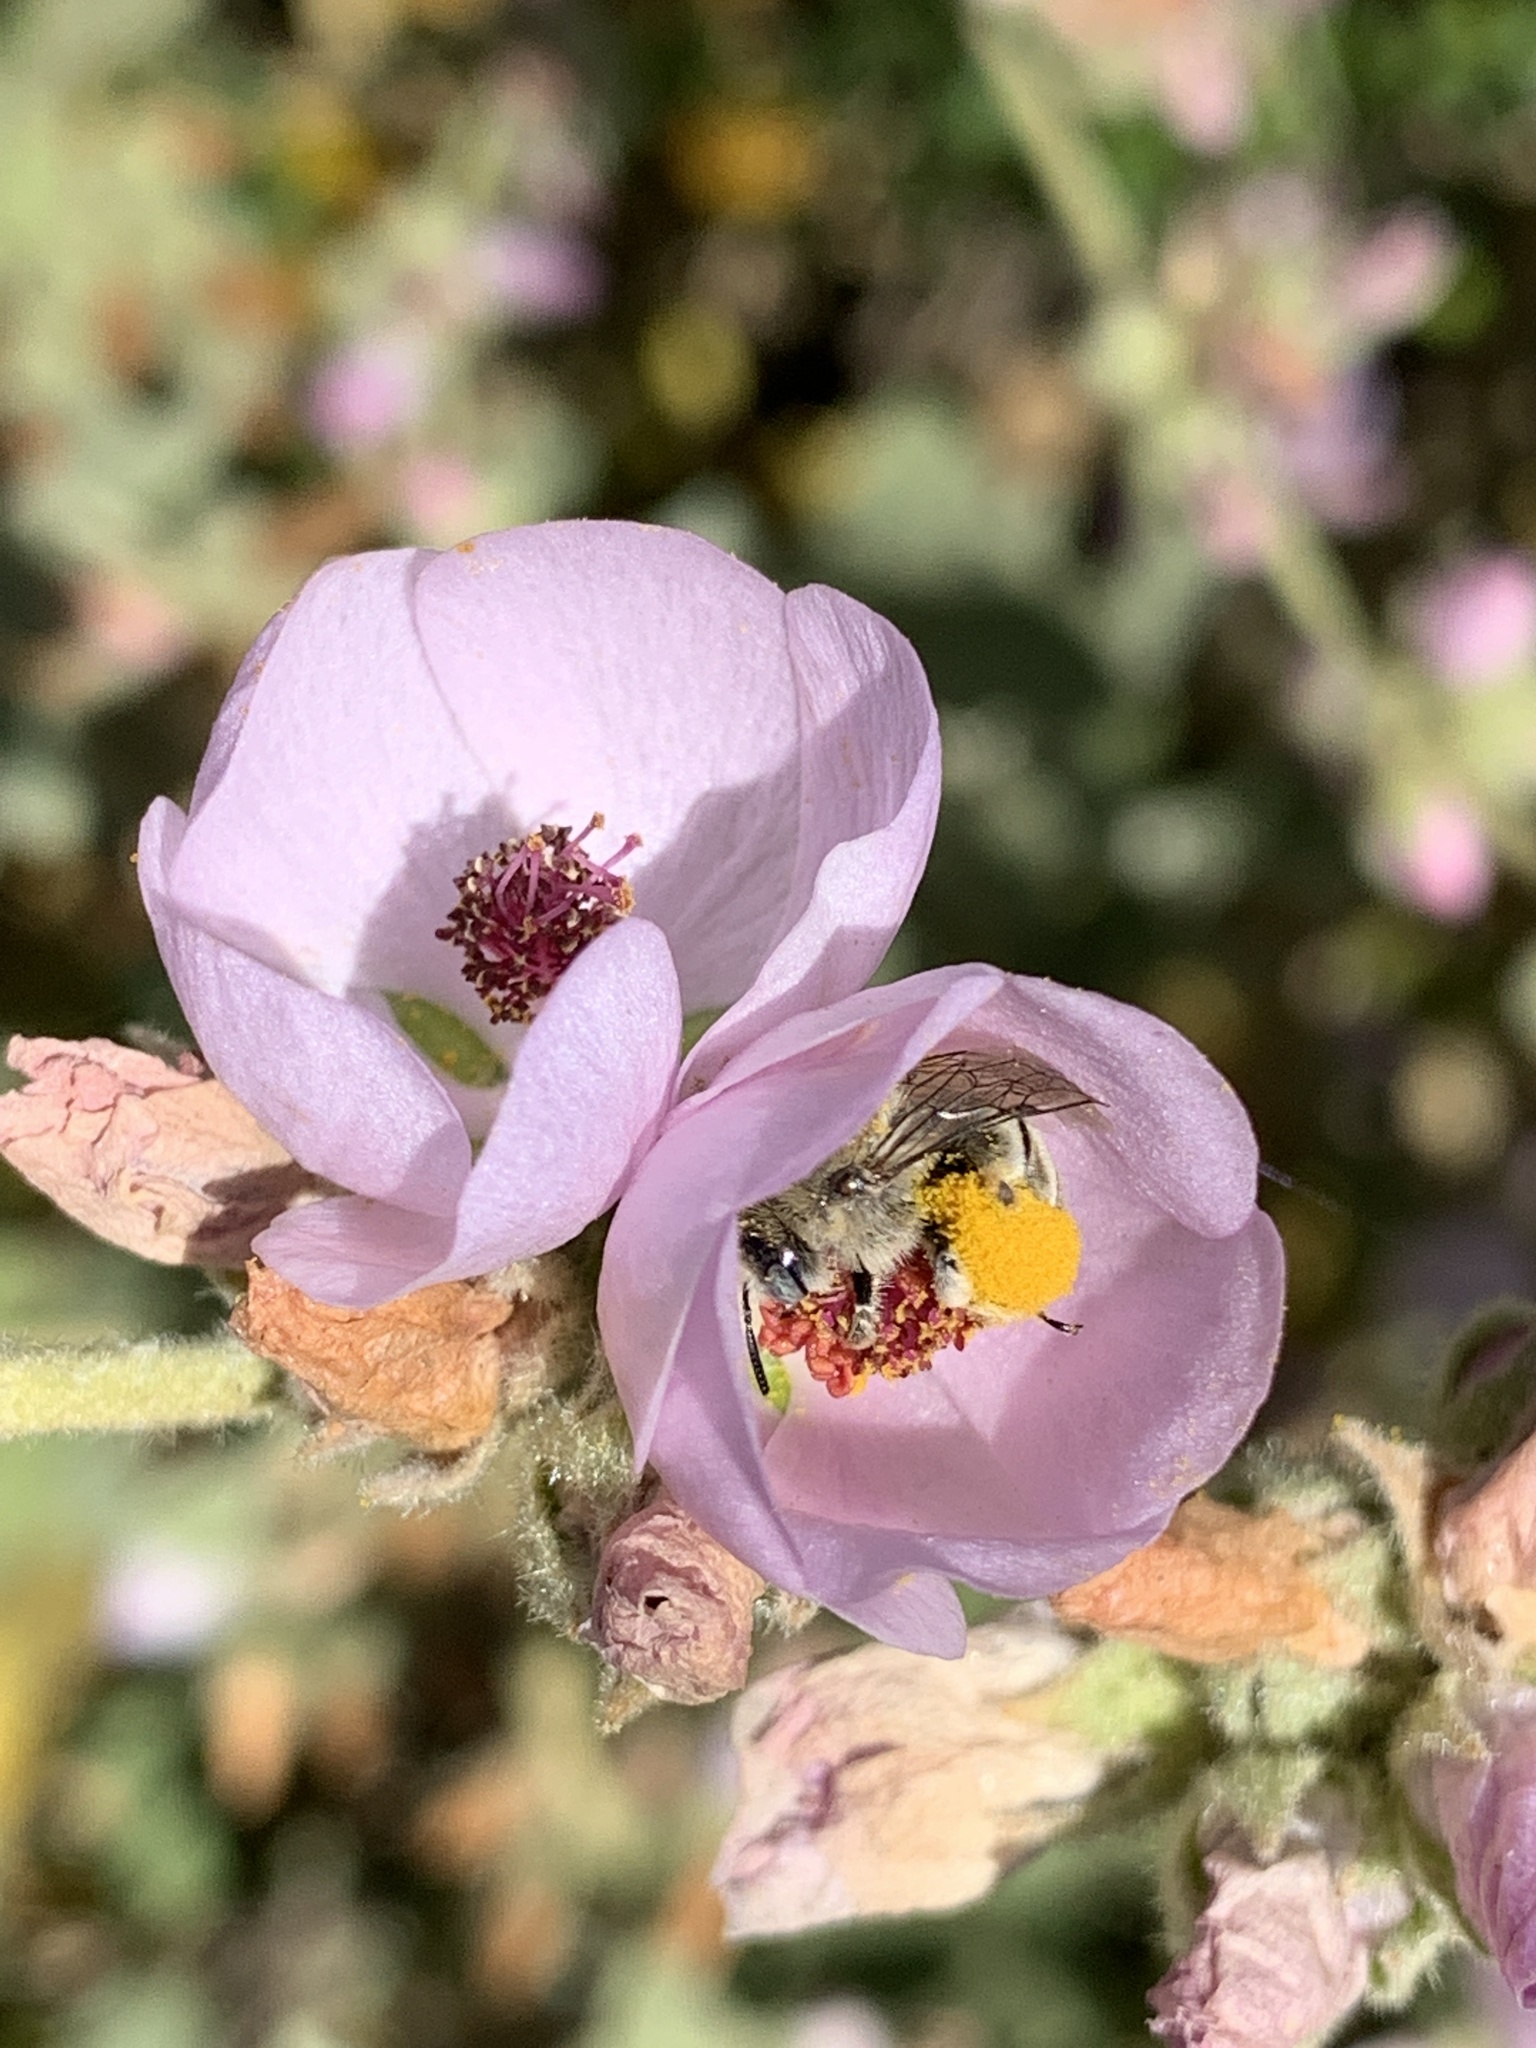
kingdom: Plantae
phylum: Tracheophyta
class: Magnoliopsida
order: Malvales
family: Malvaceae
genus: Malacothamnus
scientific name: Malacothamnus fasciculatus
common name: Sant cruz island bush-mallow
